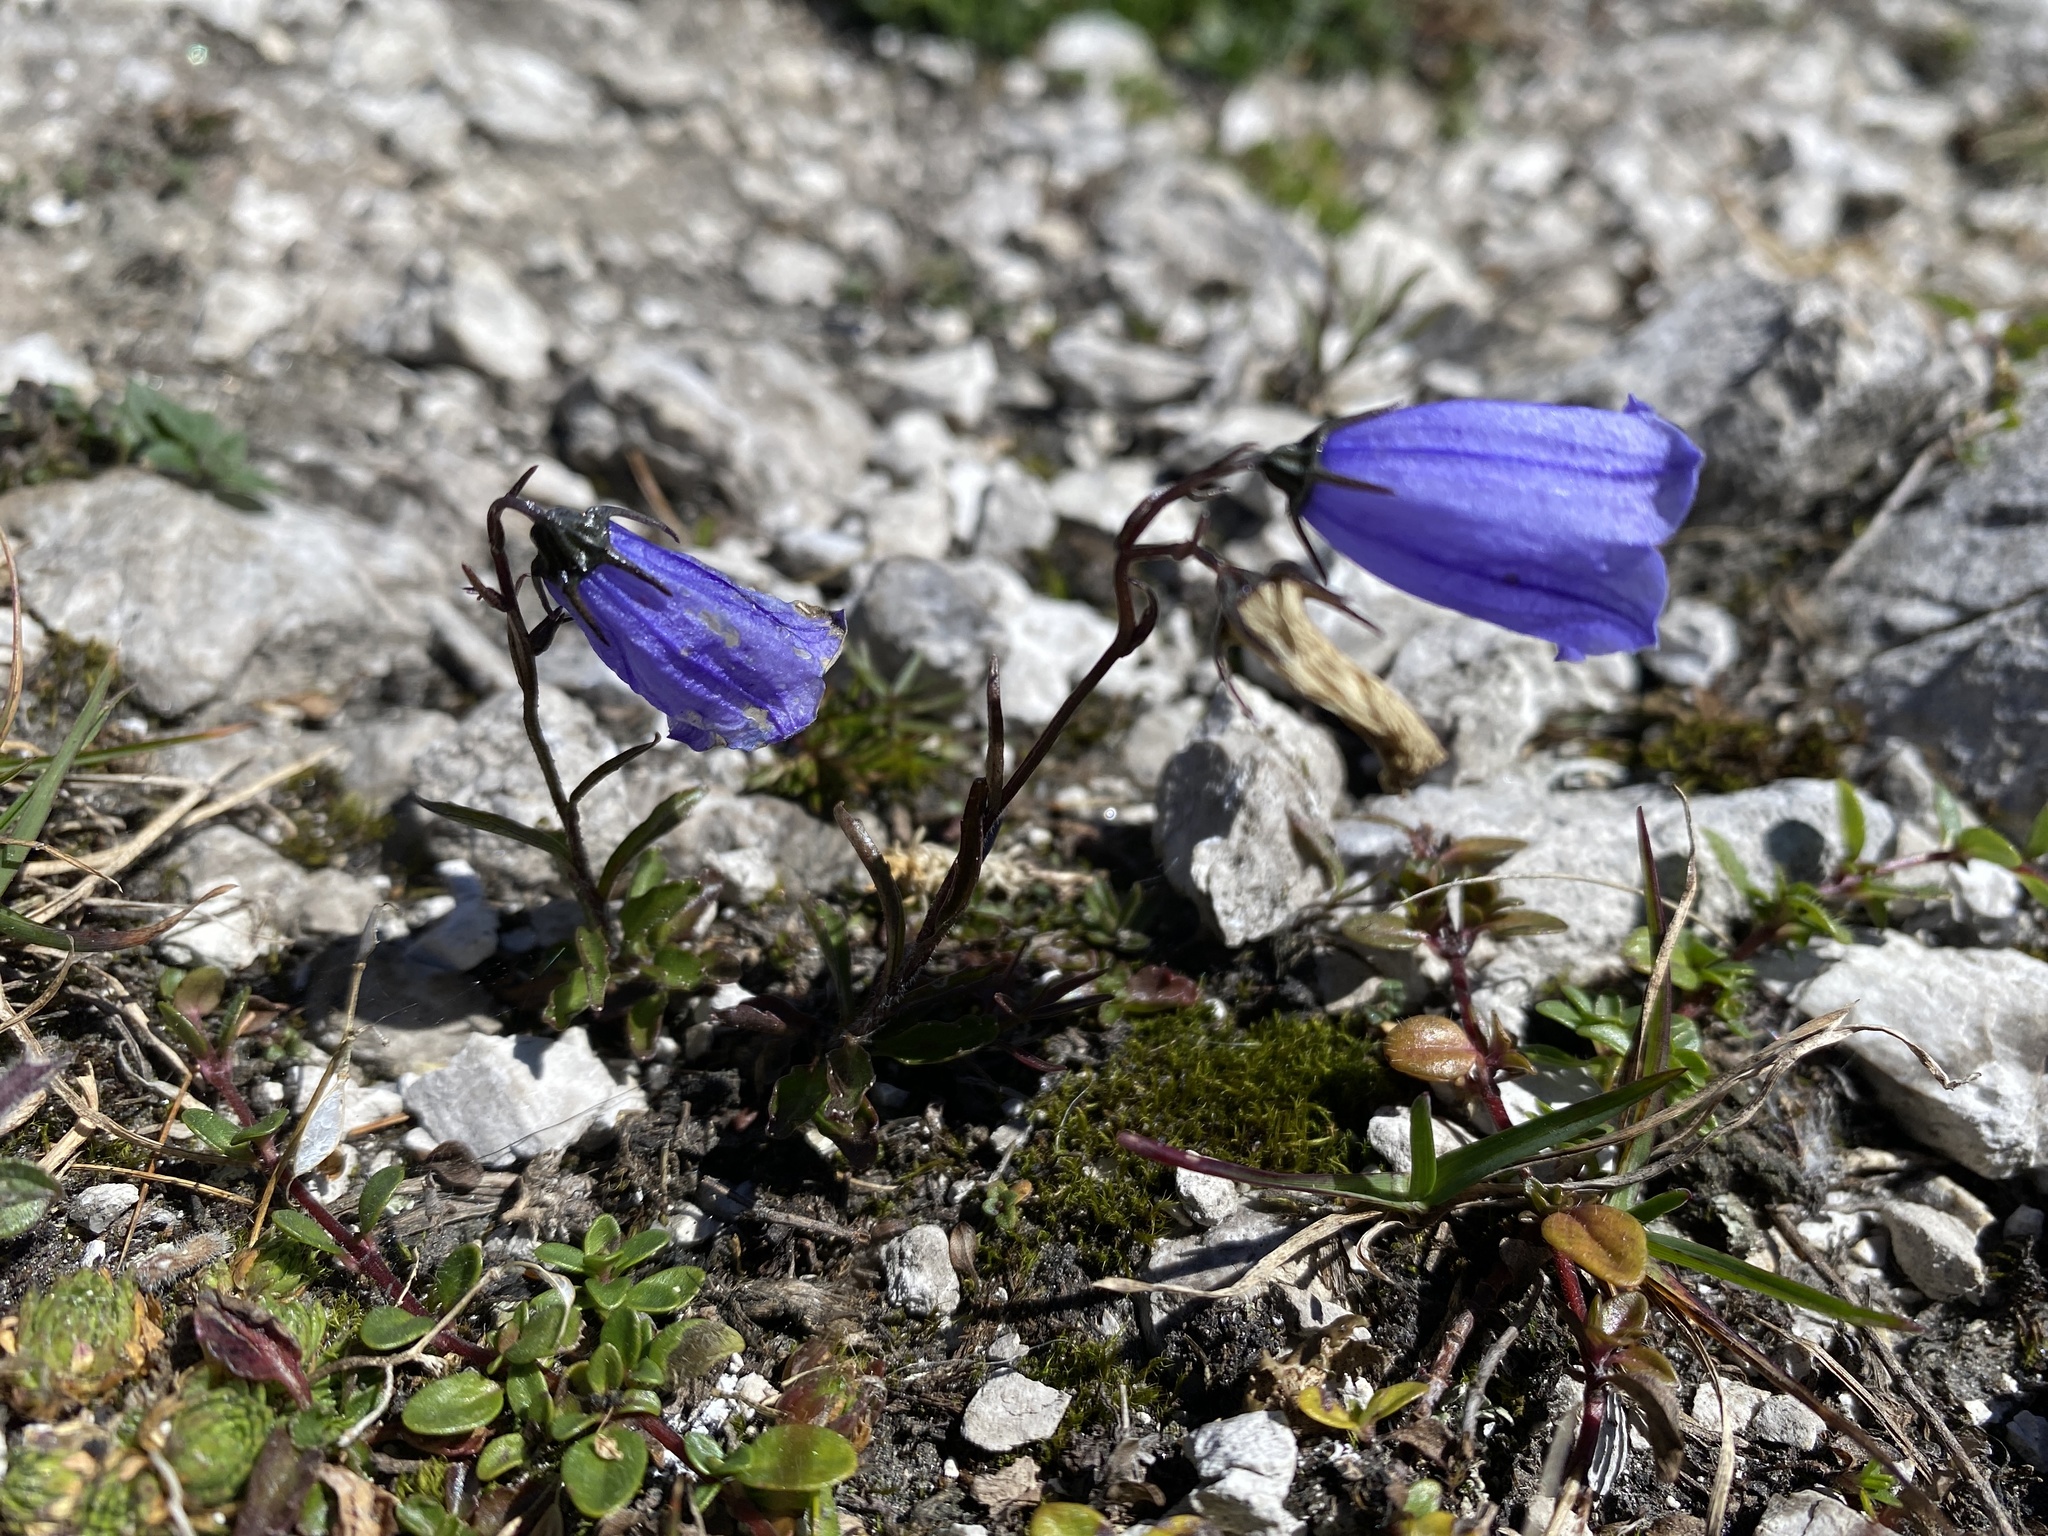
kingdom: Plantae
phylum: Tracheophyta
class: Magnoliopsida
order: Asterales
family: Campanulaceae
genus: Campanula
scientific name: Campanula cochleariifolia
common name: Fairies'-thimbles
